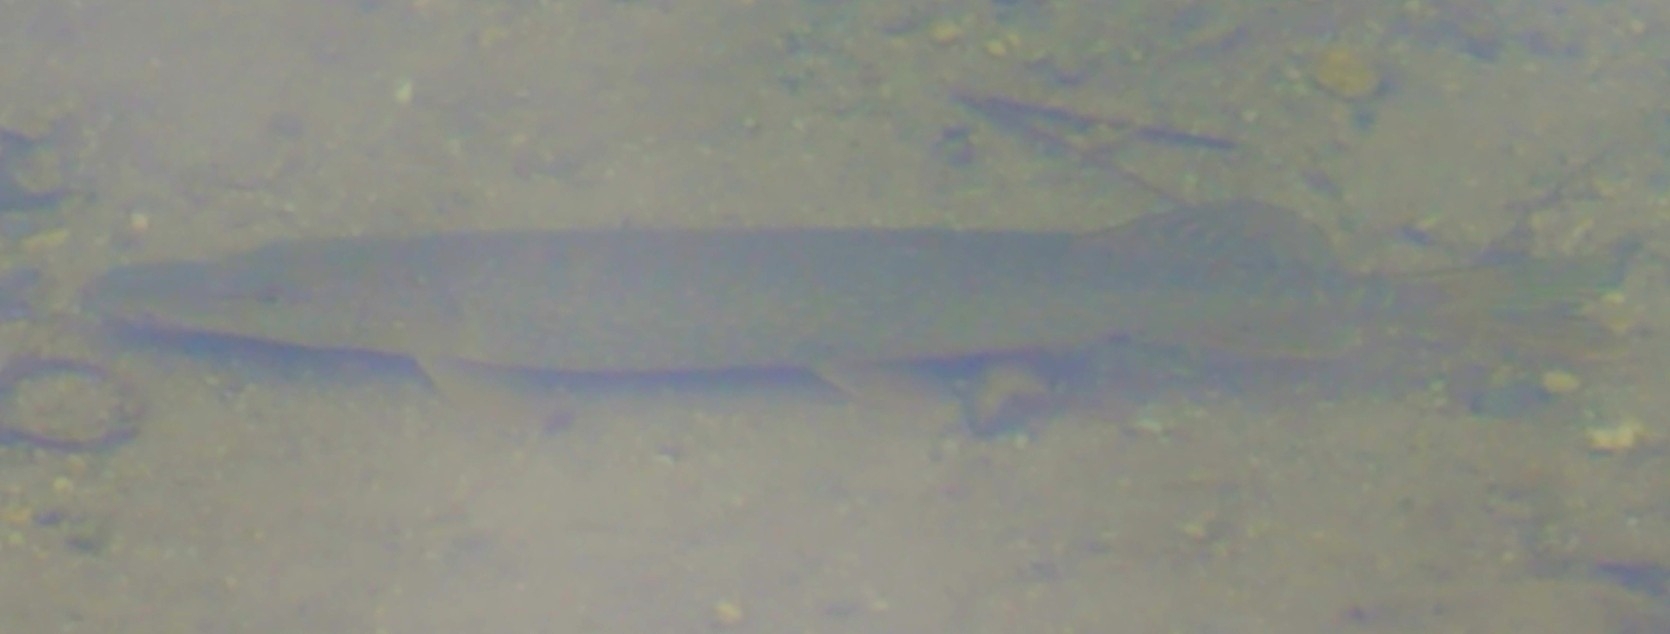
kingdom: Animalia
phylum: Chordata
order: Esociformes
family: Esocidae
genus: Esox
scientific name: Esox lucius
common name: Northern pike
